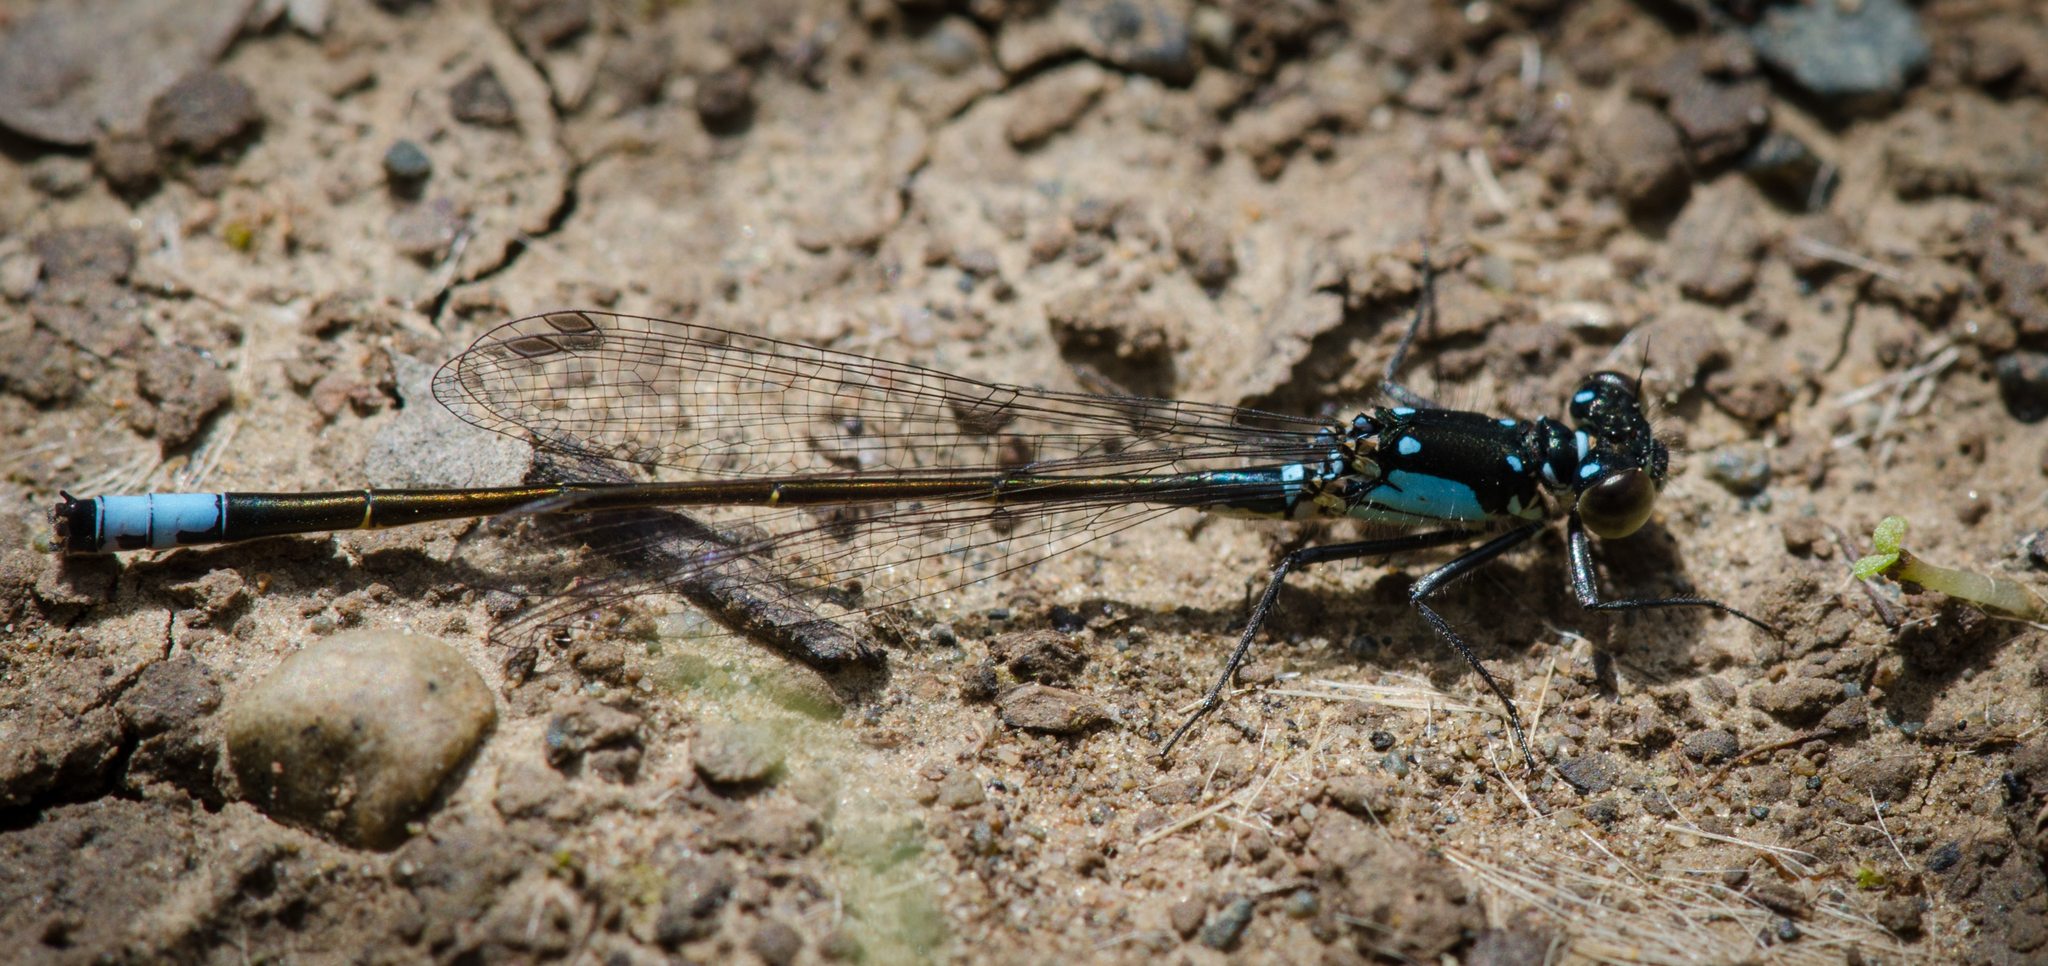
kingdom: Animalia
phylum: Arthropoda
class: Insecta
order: Odonata
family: Coenagrionidae
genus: Ischnura
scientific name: Ischnura cervula
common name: Pacific forktail
